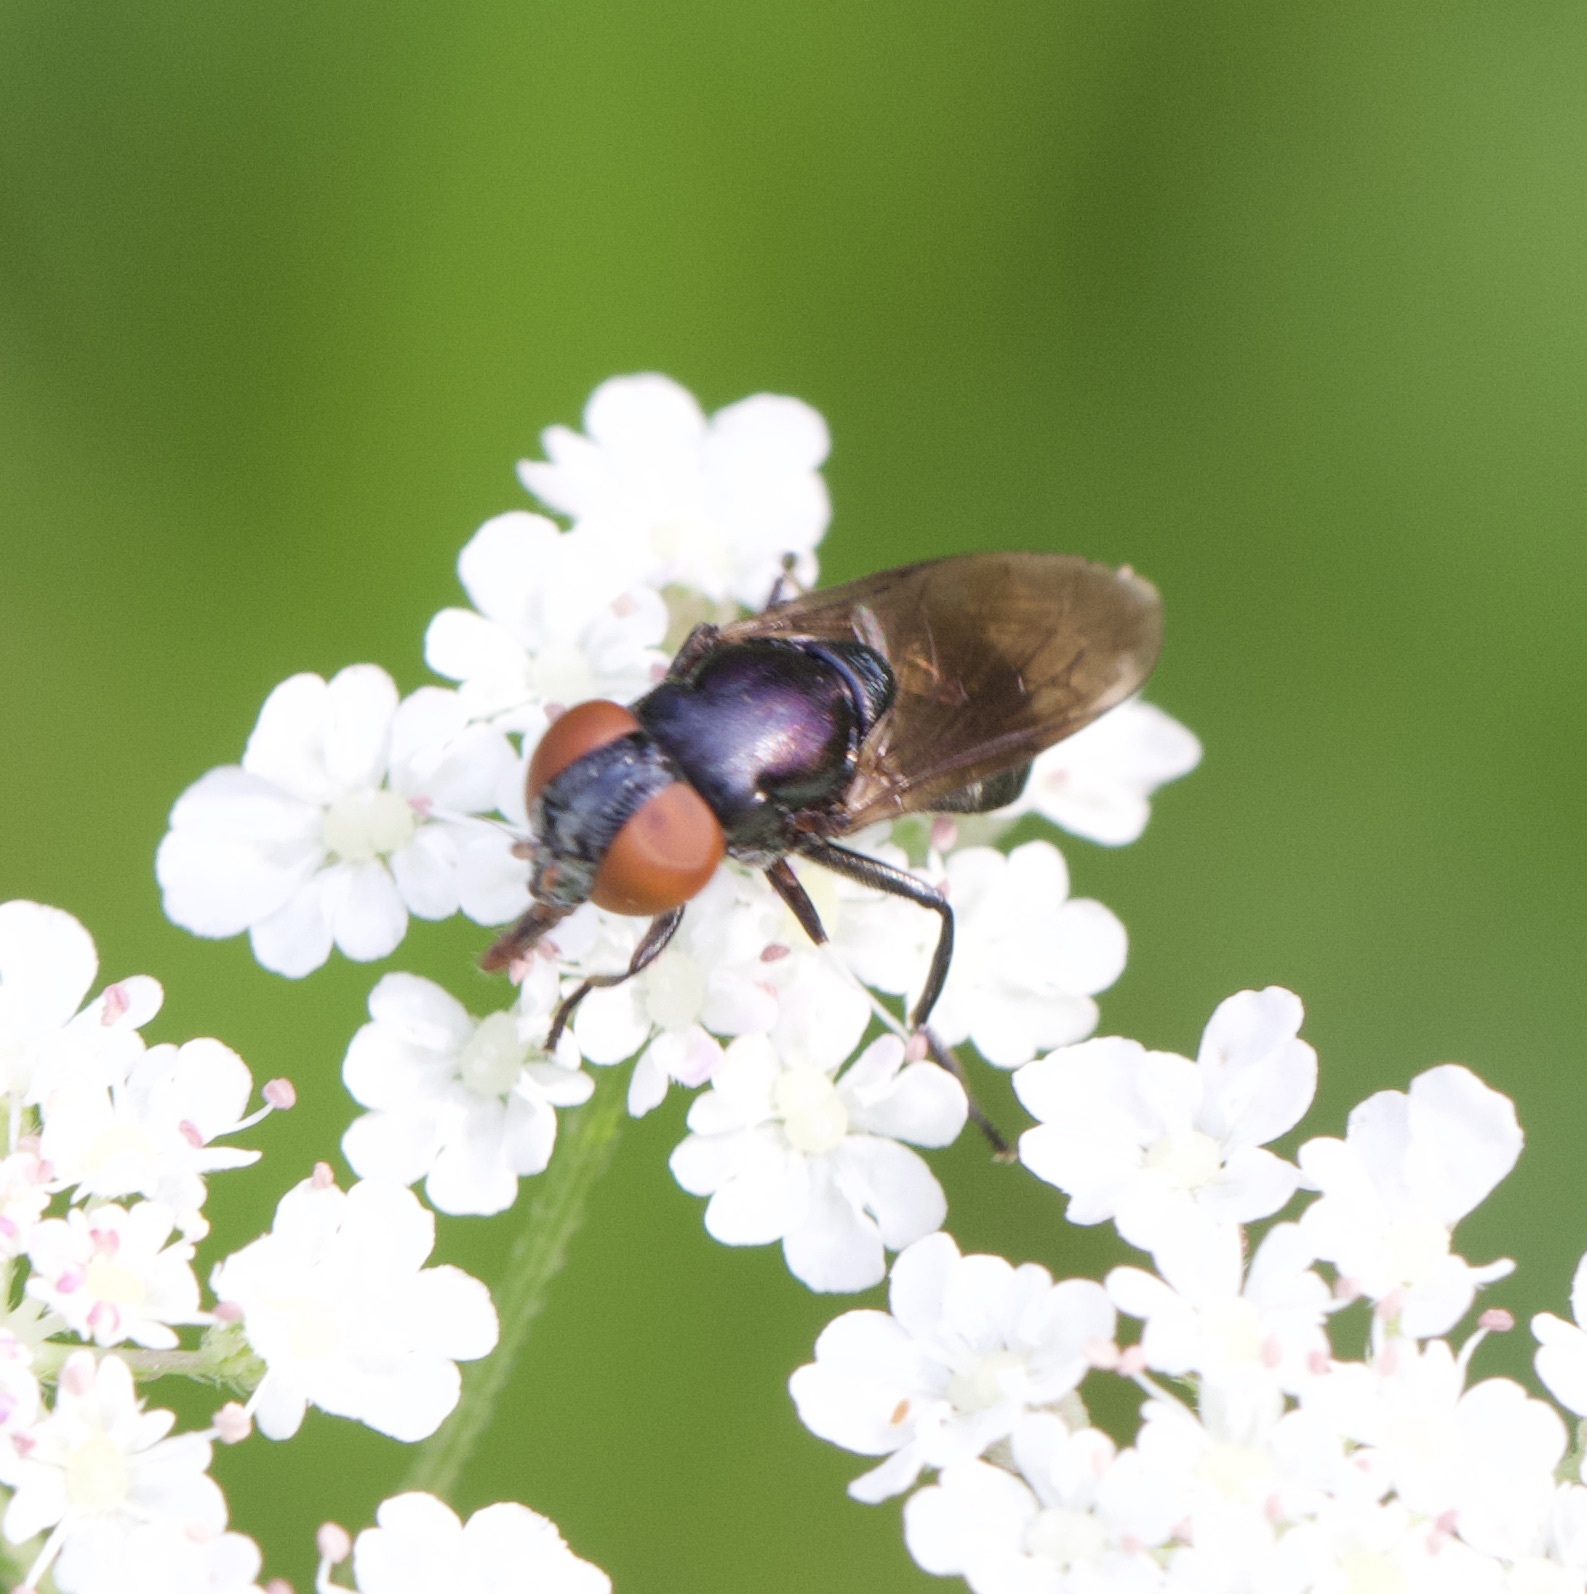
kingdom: Animalia
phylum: Arthropoda
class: Insecta
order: Diptera
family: Syrphidae
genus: Chrysogaster
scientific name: Chrysogaster solstitialis
